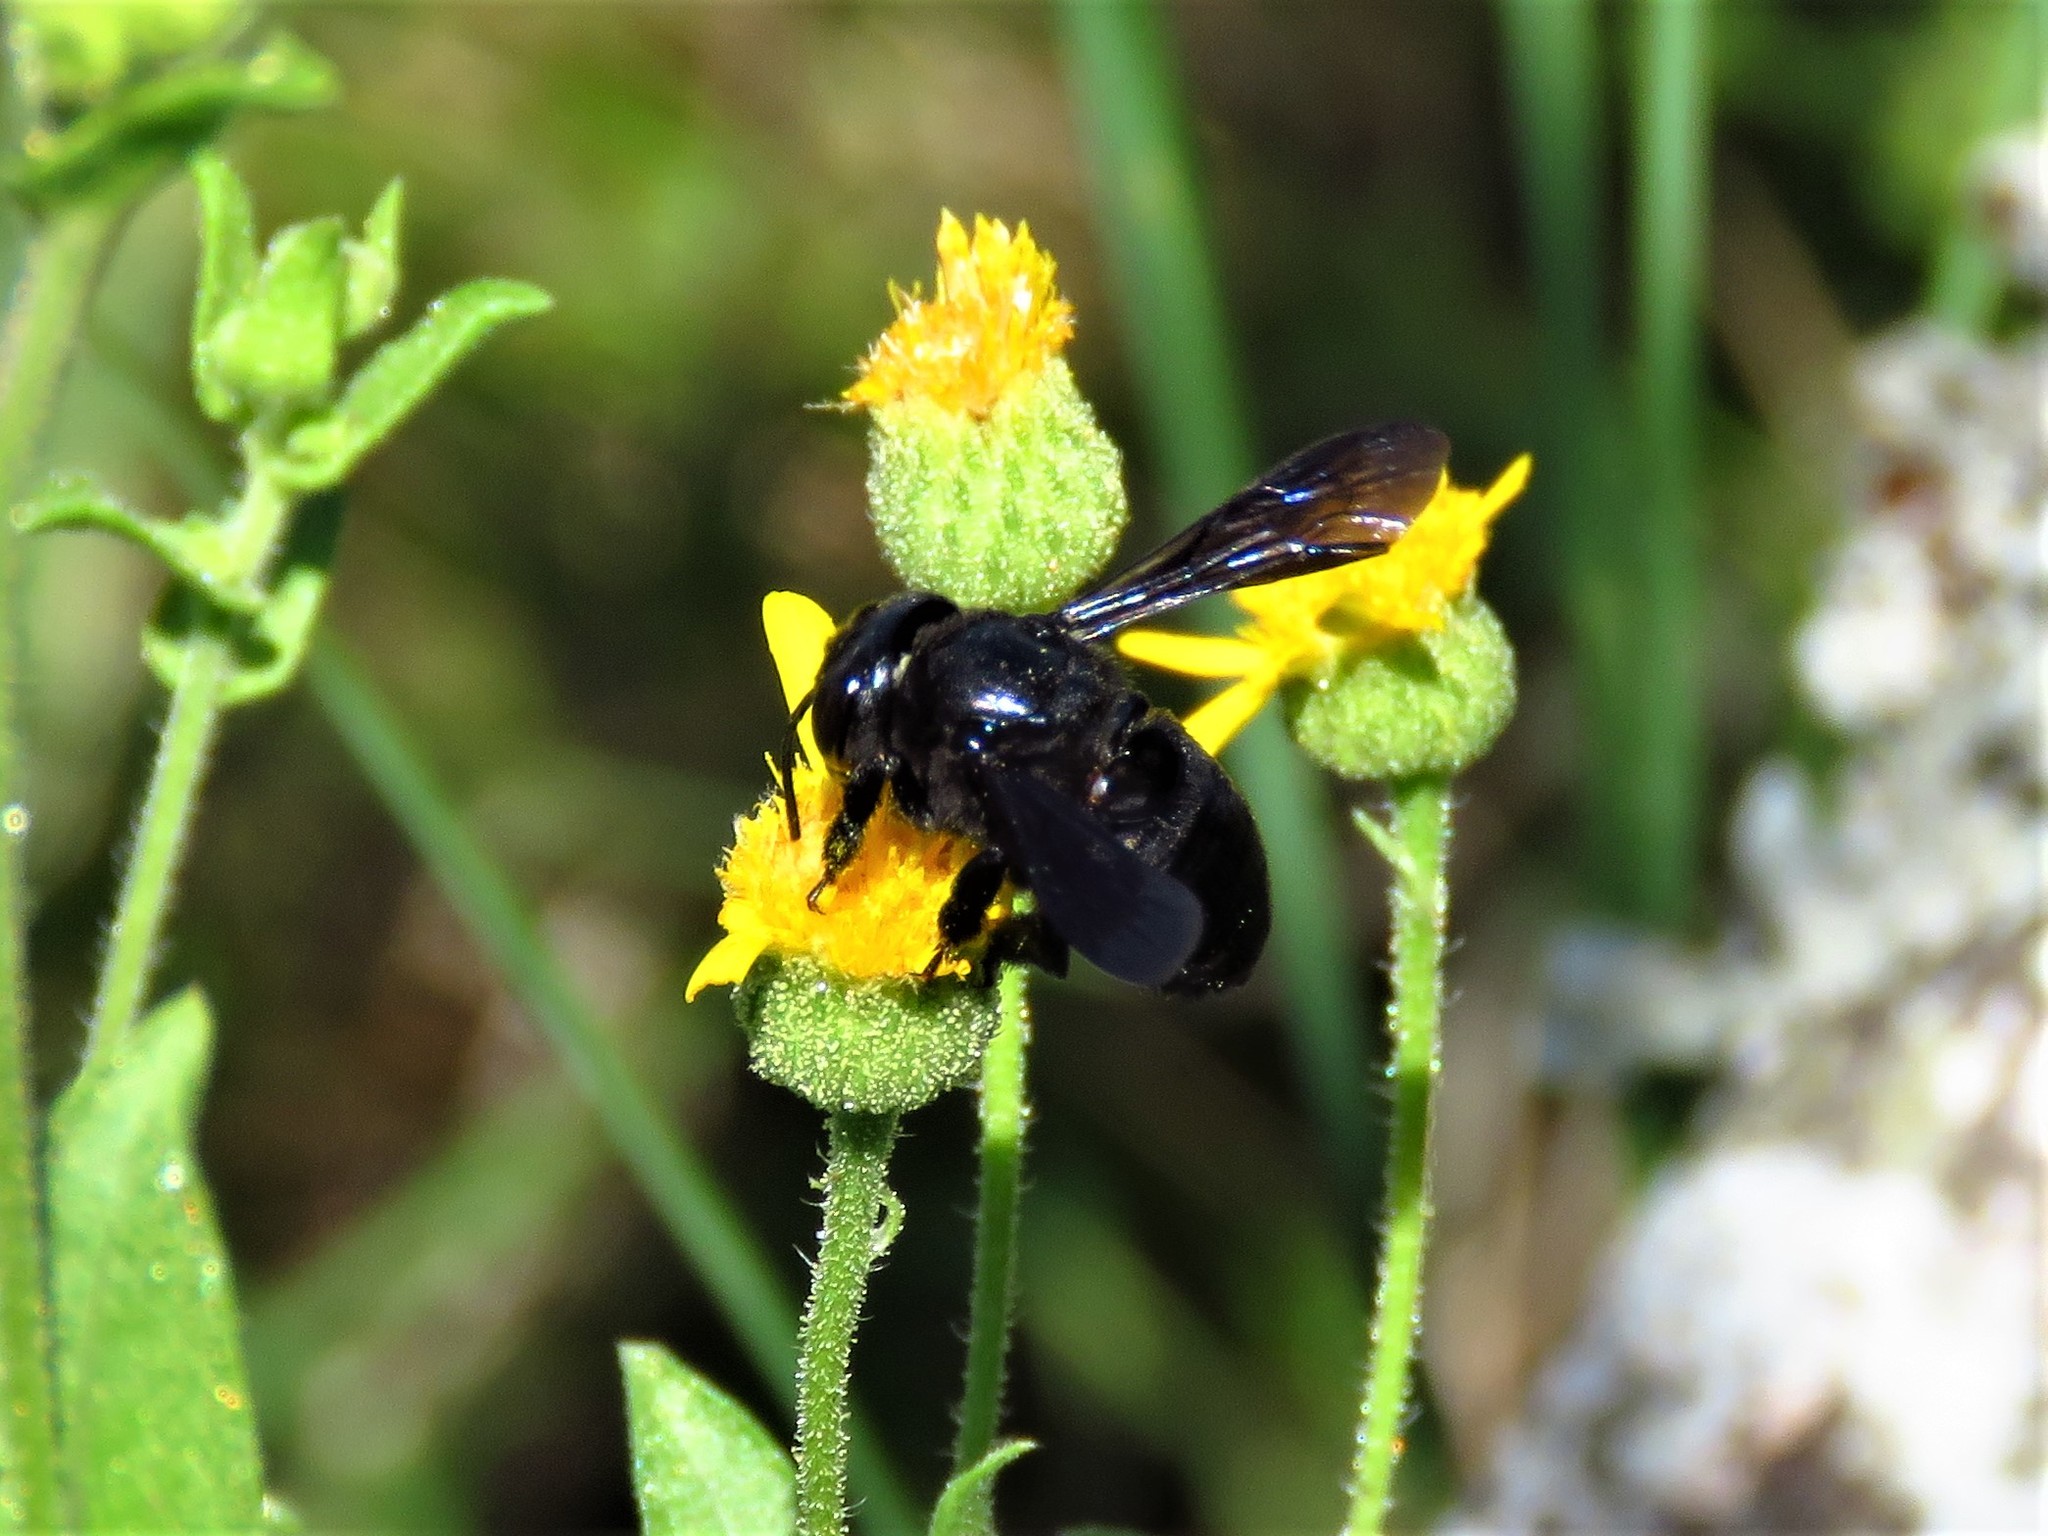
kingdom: Animalia
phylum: Arthropoda
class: Insecta
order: Hymenoptera
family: Megachilidae
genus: Megachile
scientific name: Megachile xylocopoides
